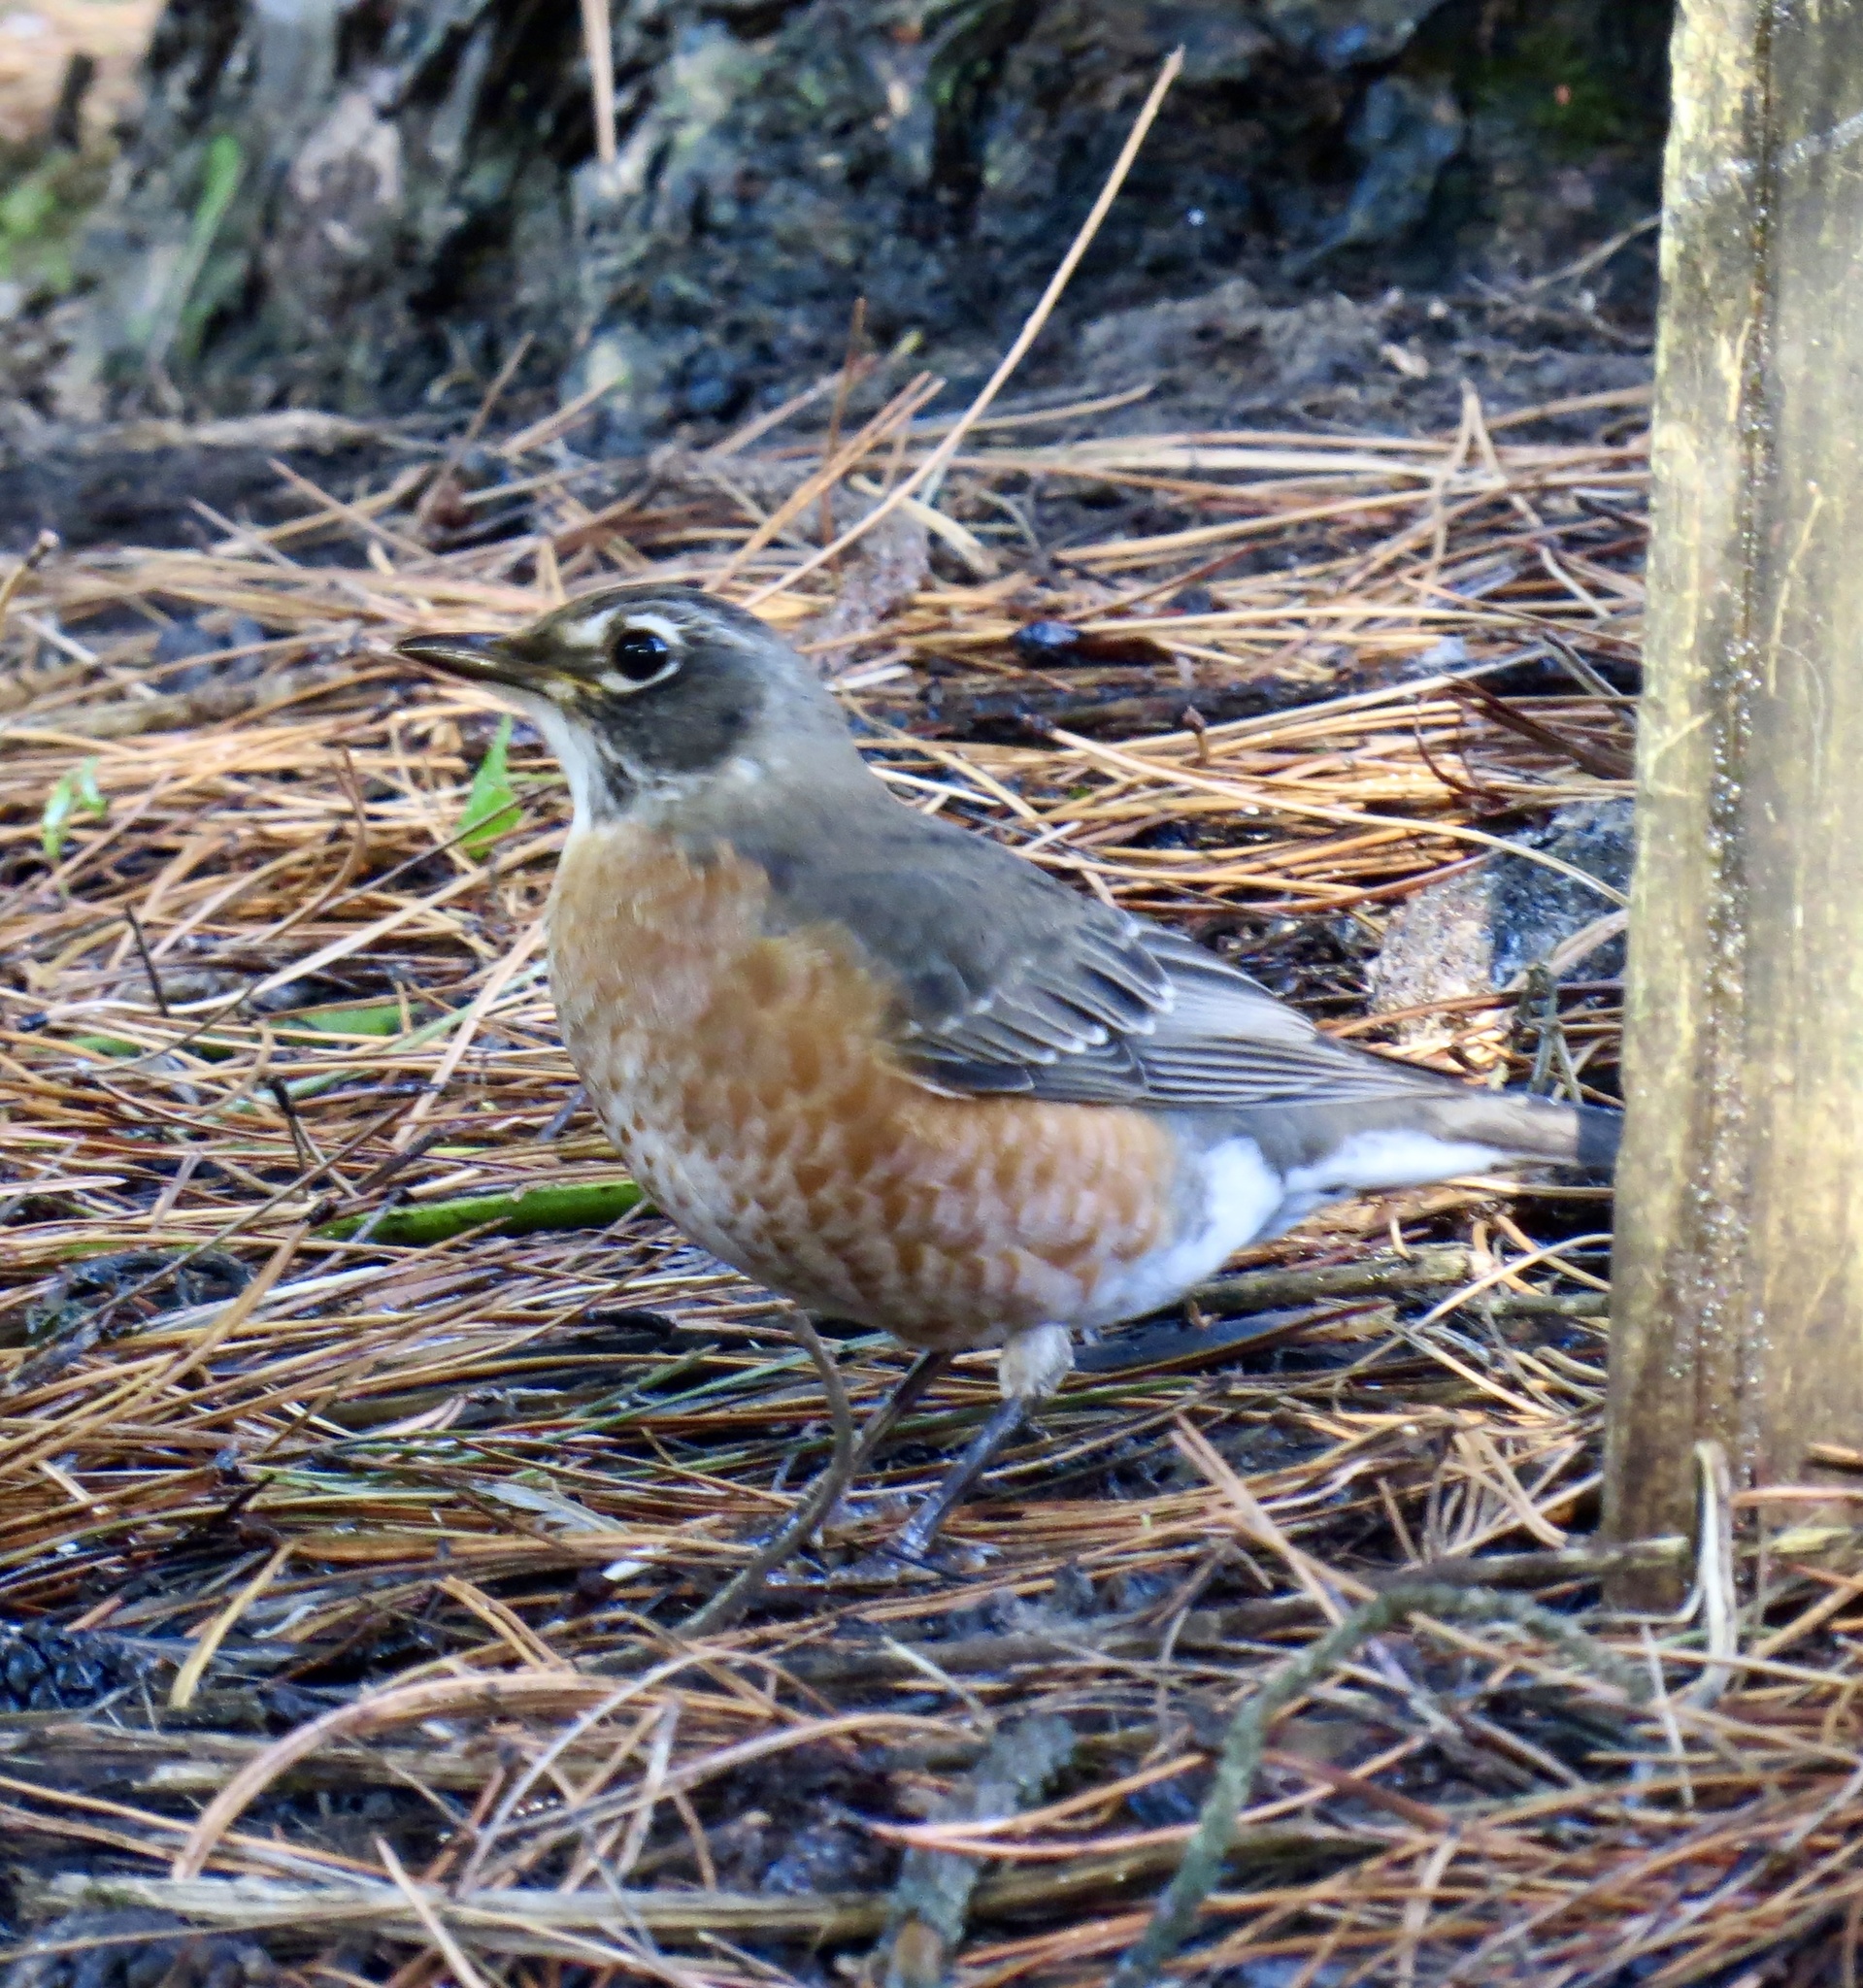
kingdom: Animalia
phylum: Chordata
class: Aves
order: Passeriformes
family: Turdidae
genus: Turdus
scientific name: Turdus migratorius
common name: American robin
